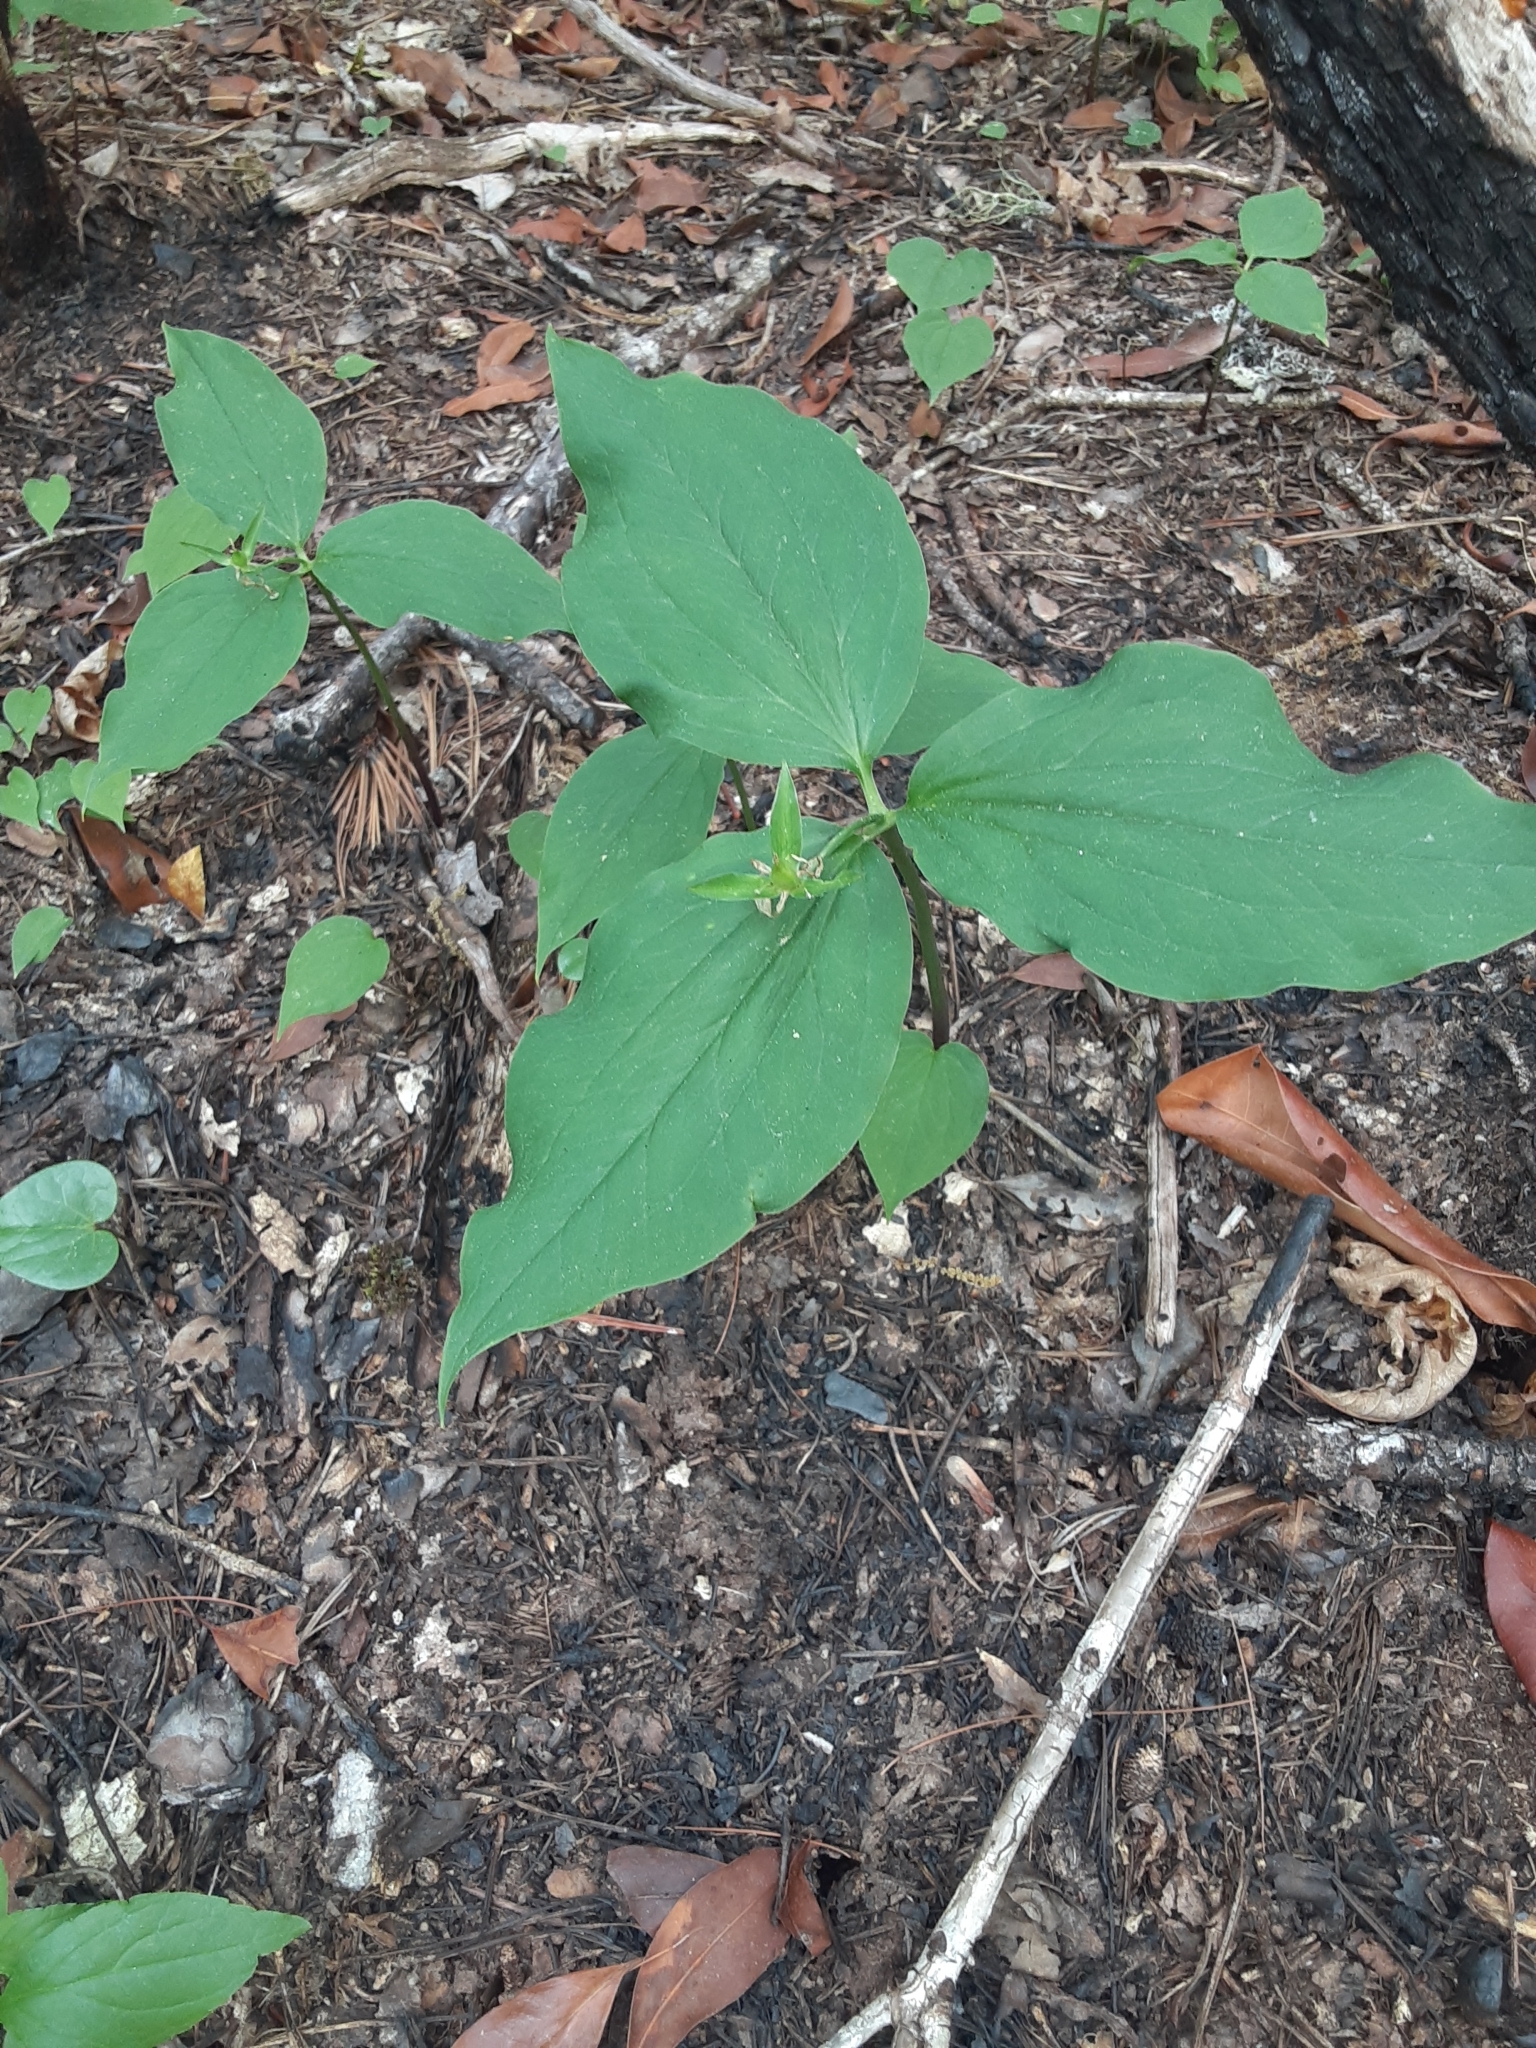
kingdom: Plantae
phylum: Tracheophyta
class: Liliopsida
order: Liliales
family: Melanthiaceae
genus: Trillium
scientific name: Trillium undulatum
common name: Paint trillium
